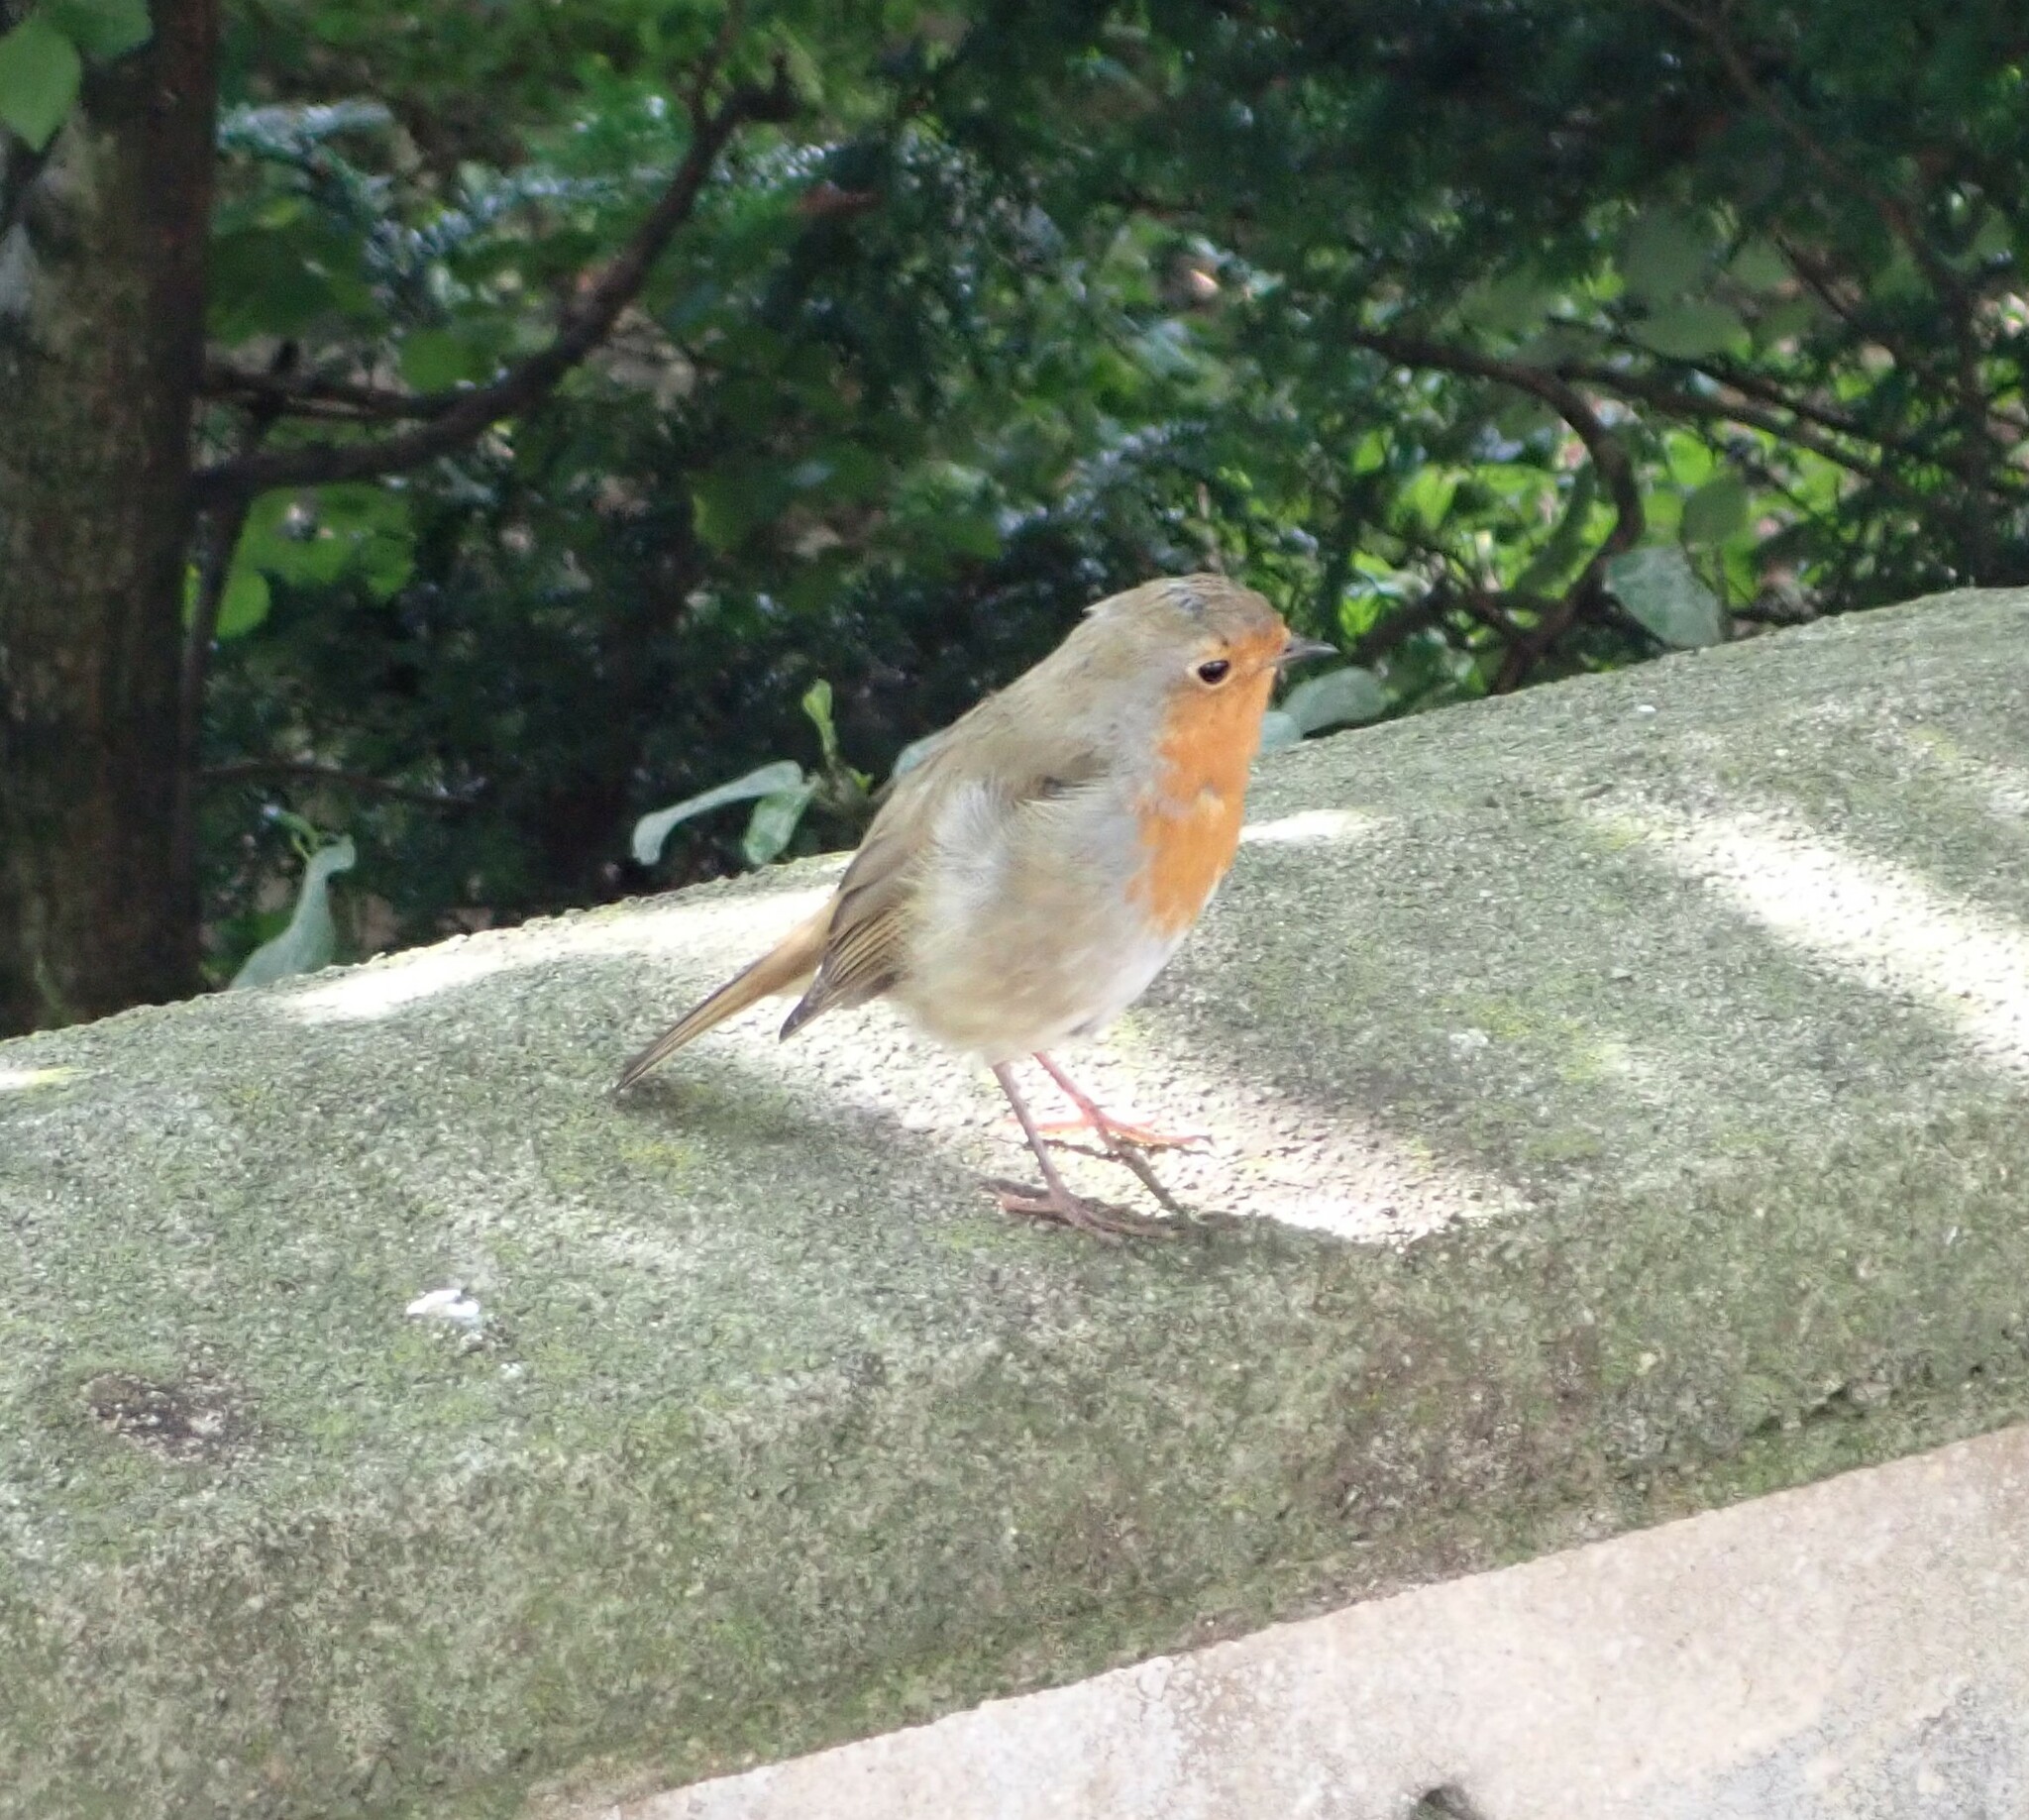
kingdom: Animalia
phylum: Chordata
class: Aves
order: Passeriformes
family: Muscicapidae
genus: Erithacus
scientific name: Erithacus rubecula
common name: European robin
